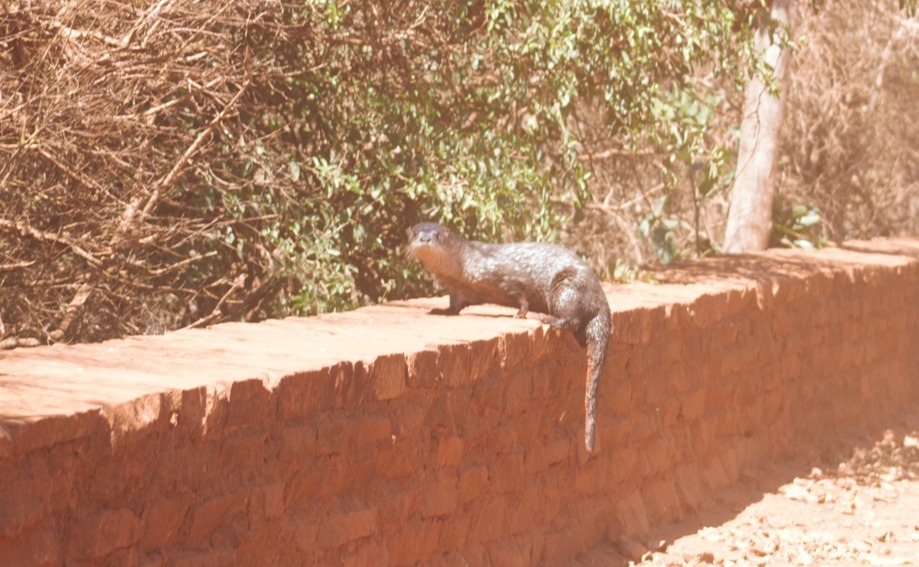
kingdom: Animalia
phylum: Chordata
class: Mammalia
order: Carnivora
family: Mustelidae
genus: Lontra
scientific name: Lontra longicaudis
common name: Neotropical otter
